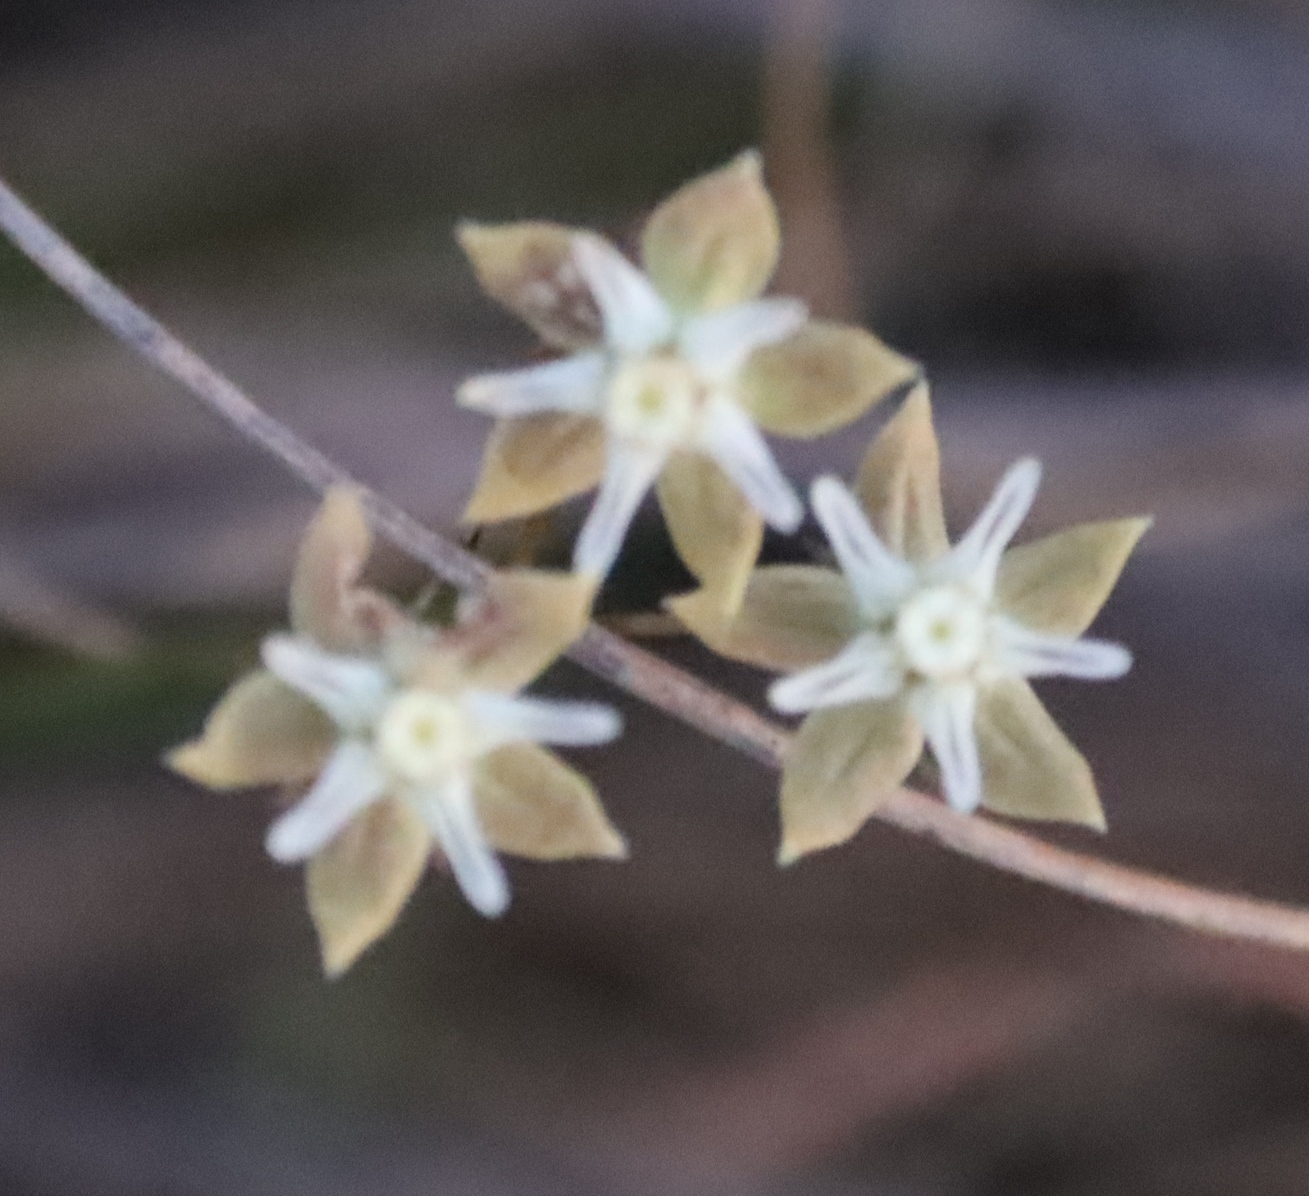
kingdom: Plantae
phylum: Tracheophyta
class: Magnoliopsida
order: Gentianales
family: Apocynaceae
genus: Asclepias
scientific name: Asclepias aurea
